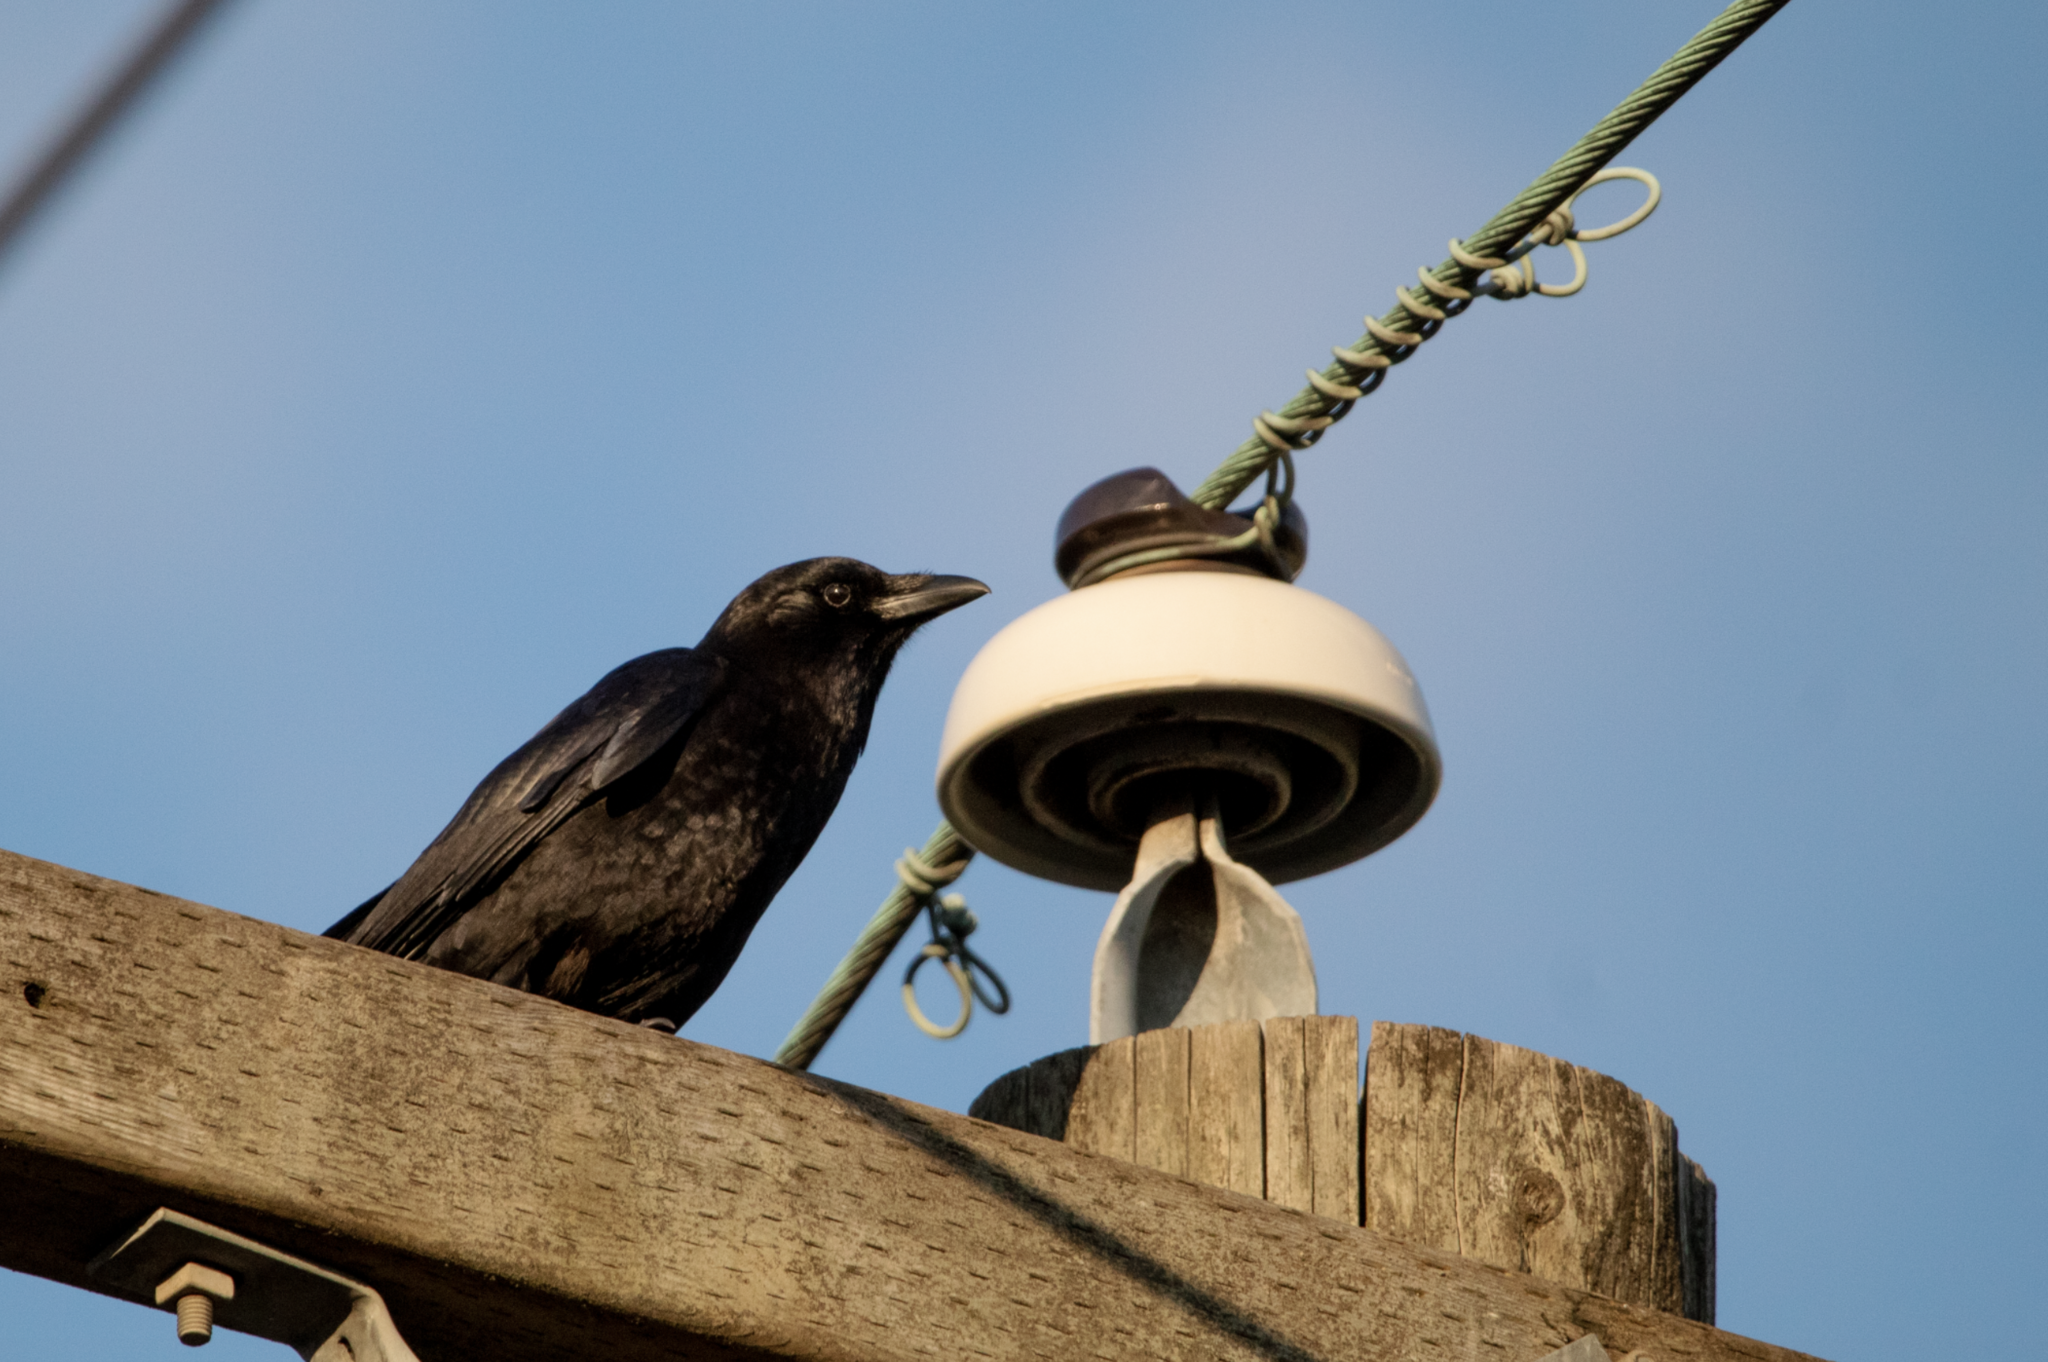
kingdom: Animalia
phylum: Chordata
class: Aves
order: Passeriformes
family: Corvidae
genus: Corvus
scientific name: Corvus brachyrhynchos
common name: American crow
